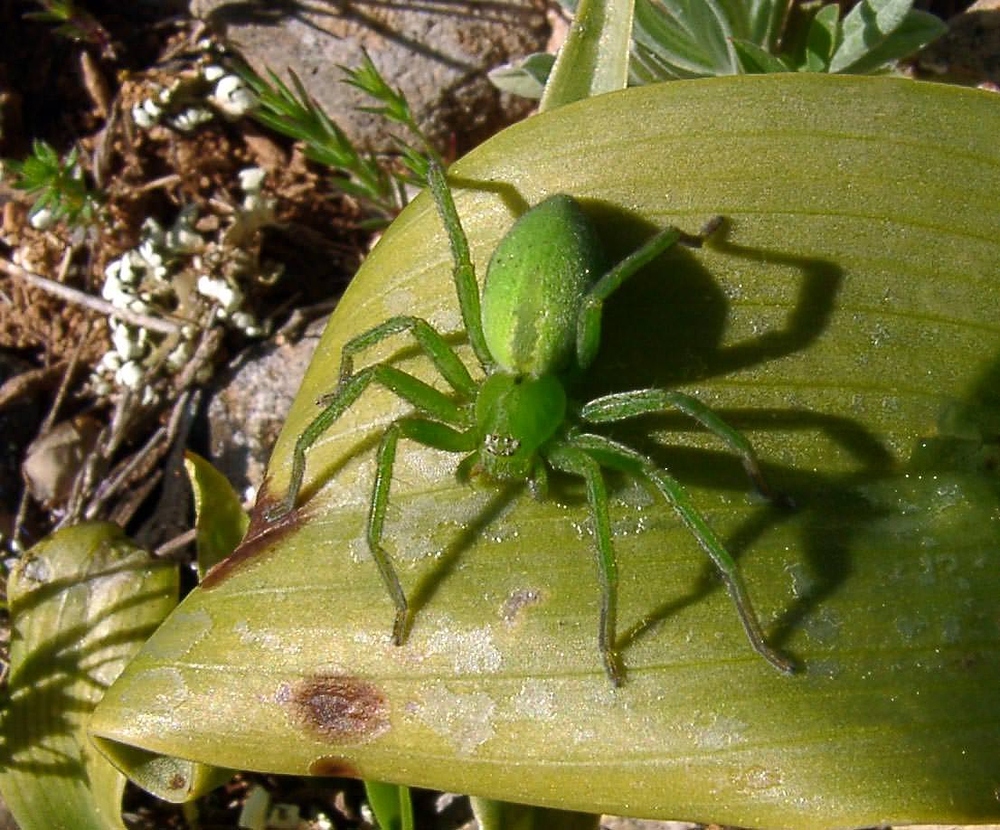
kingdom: Animalia
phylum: Arthropoda
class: Arachnida
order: Araneae
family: Sparassidae
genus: Micrommata
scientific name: Micrommata ligurina
